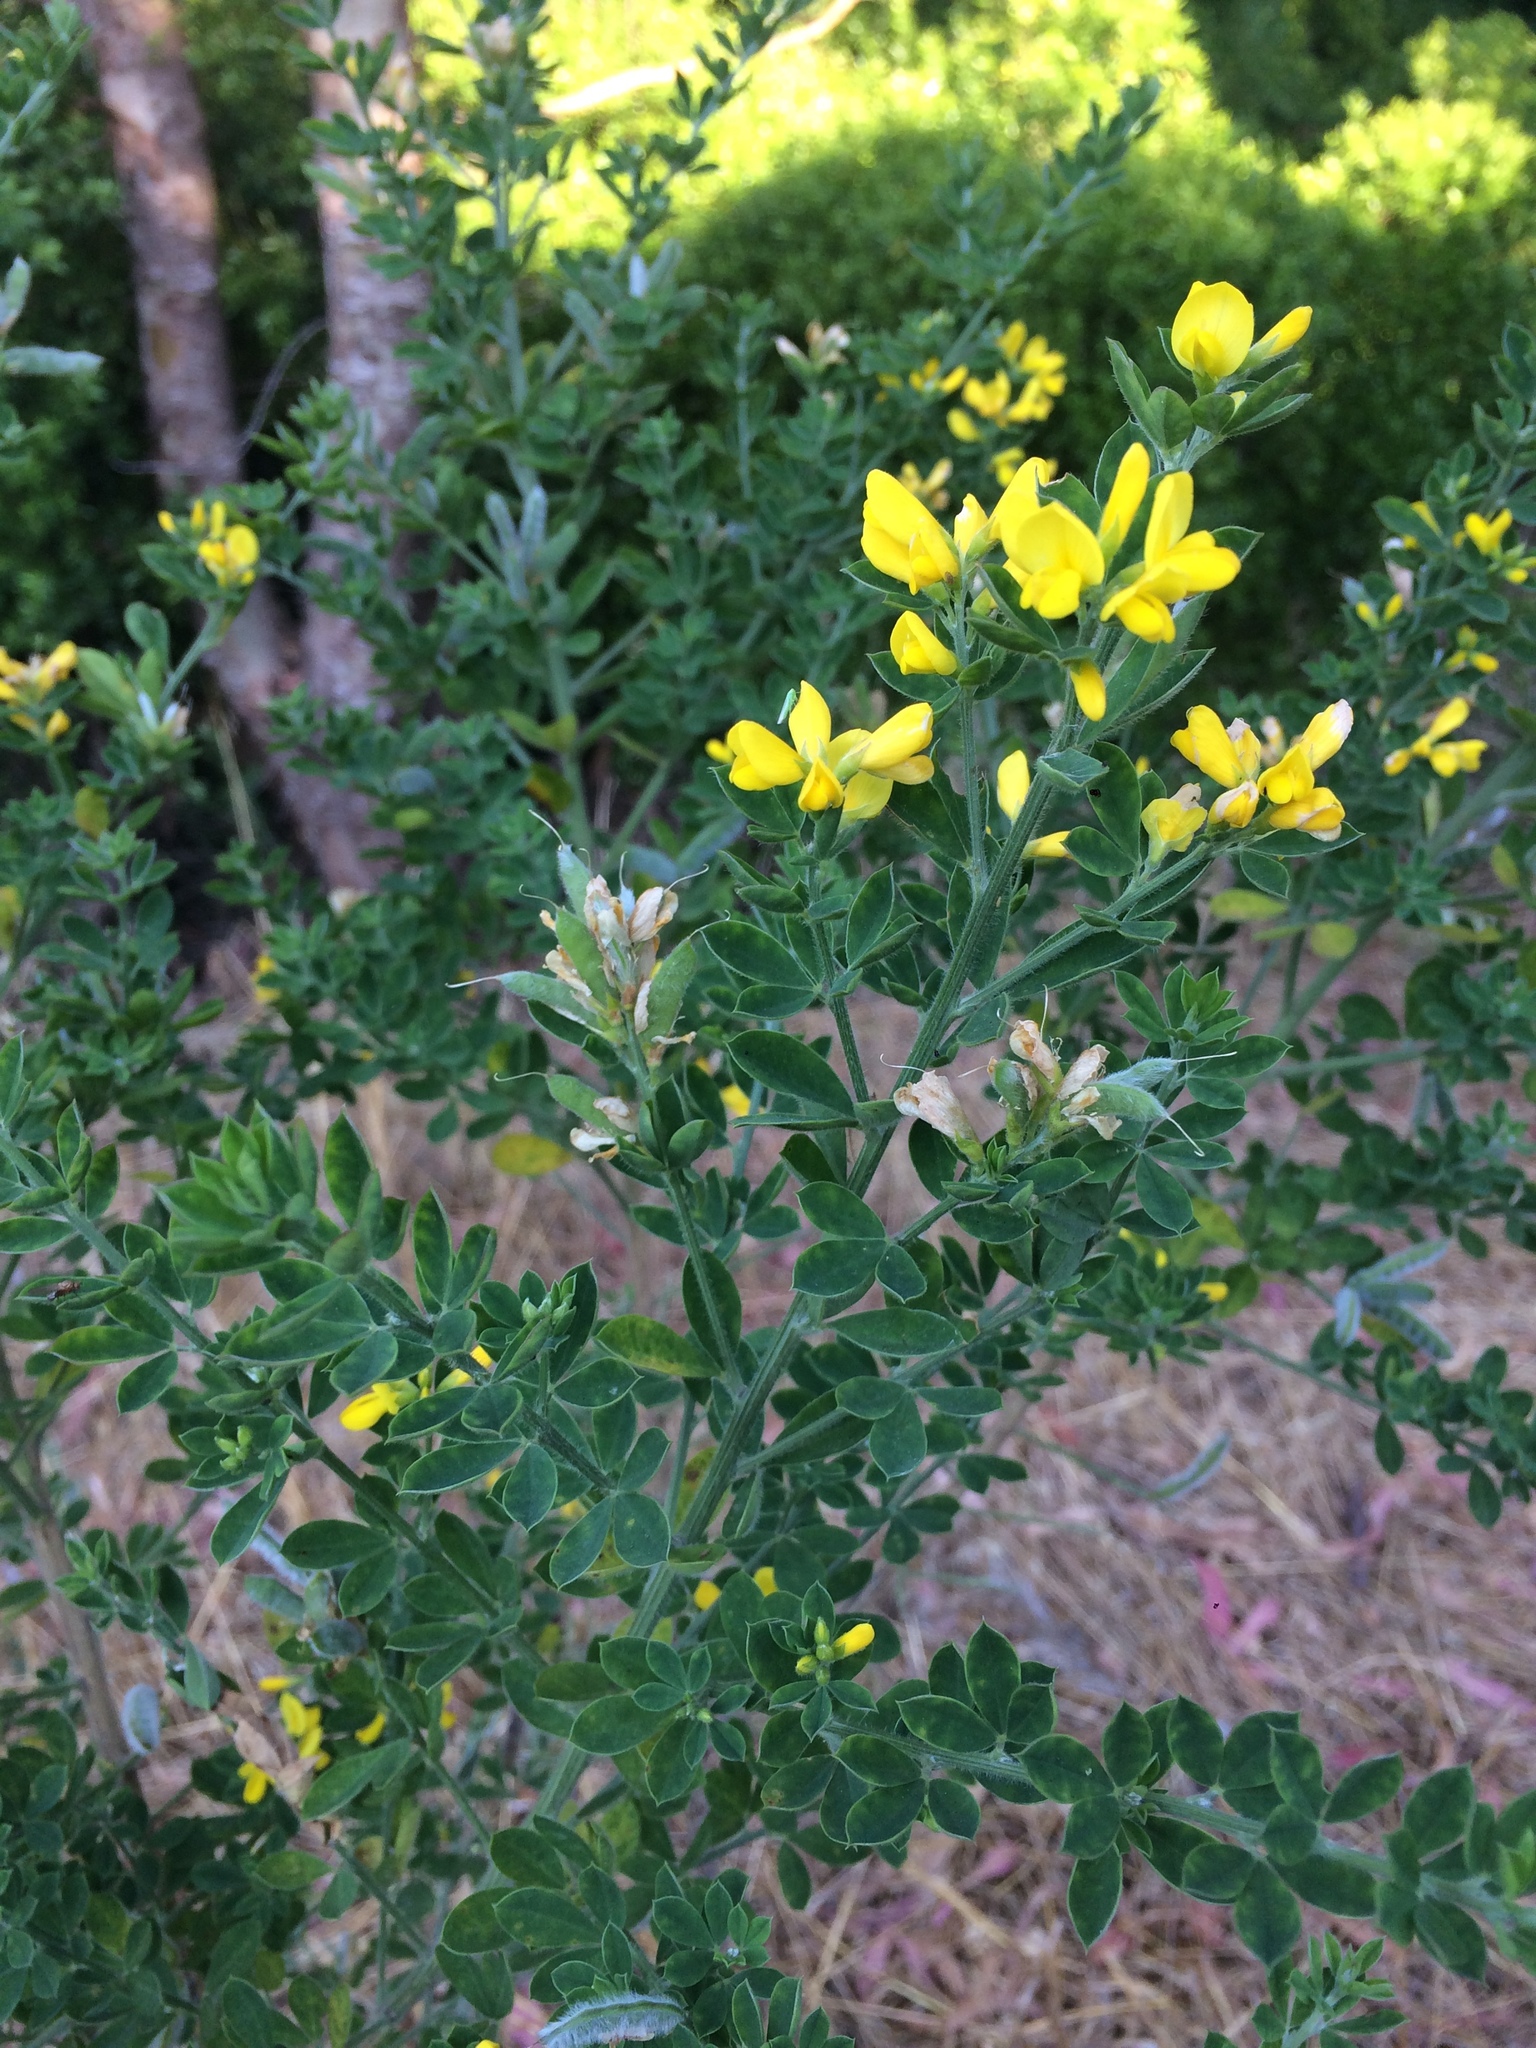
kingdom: Plantae
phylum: Tracheophyta
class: Magnoliopsida
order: Fabales
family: Fabaceae
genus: Genista
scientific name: Genista monspessulana
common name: Montpellier broom
